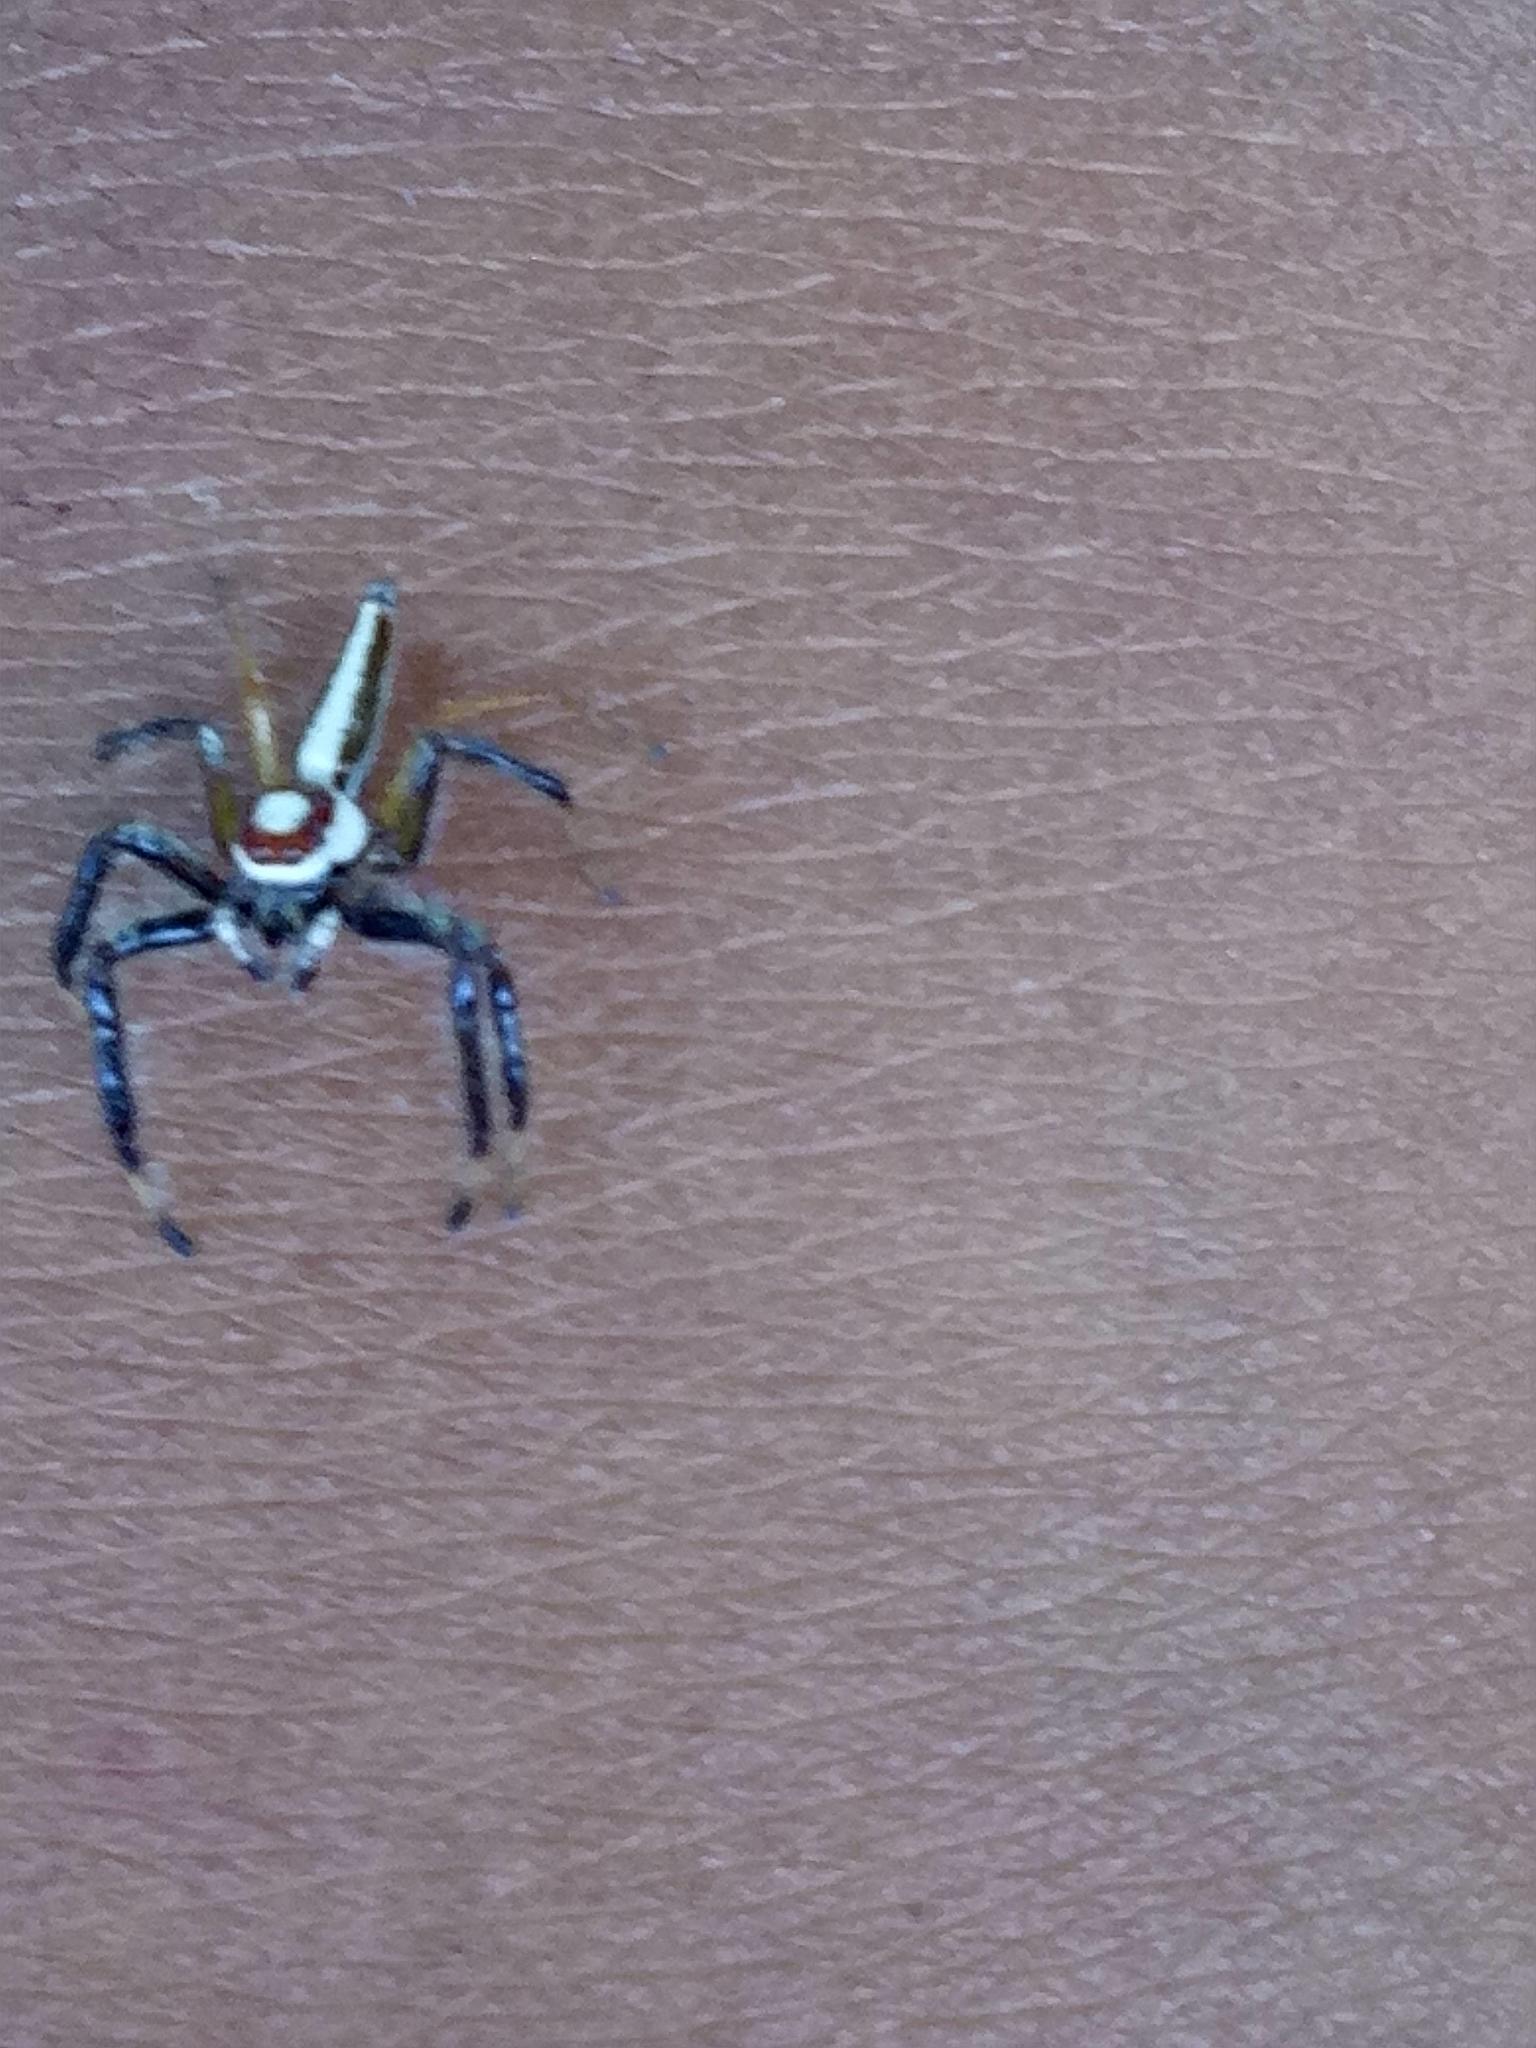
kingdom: Animalia
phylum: Arthropoda
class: Arachnida
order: Araneae
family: Salticidae
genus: Telamonia
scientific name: Telamonia dimidiata
